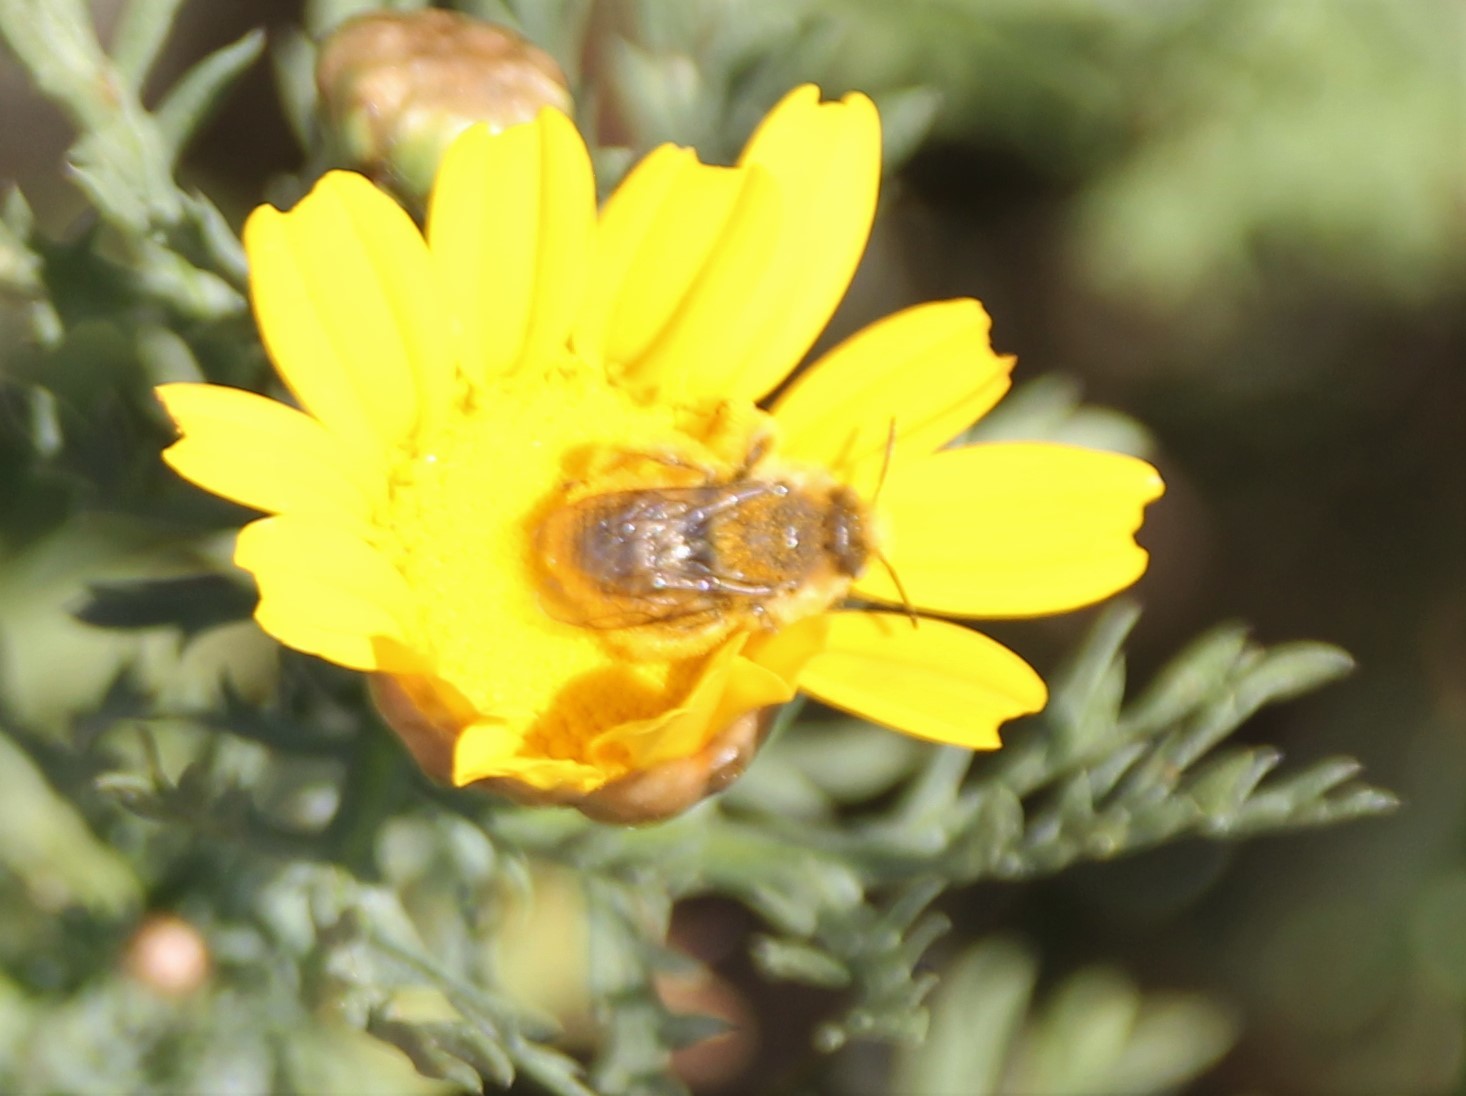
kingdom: Animalia
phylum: Arthropoda
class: Insecta
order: Hymenoptera
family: Apidae
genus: Diadasia
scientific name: Diadasia
